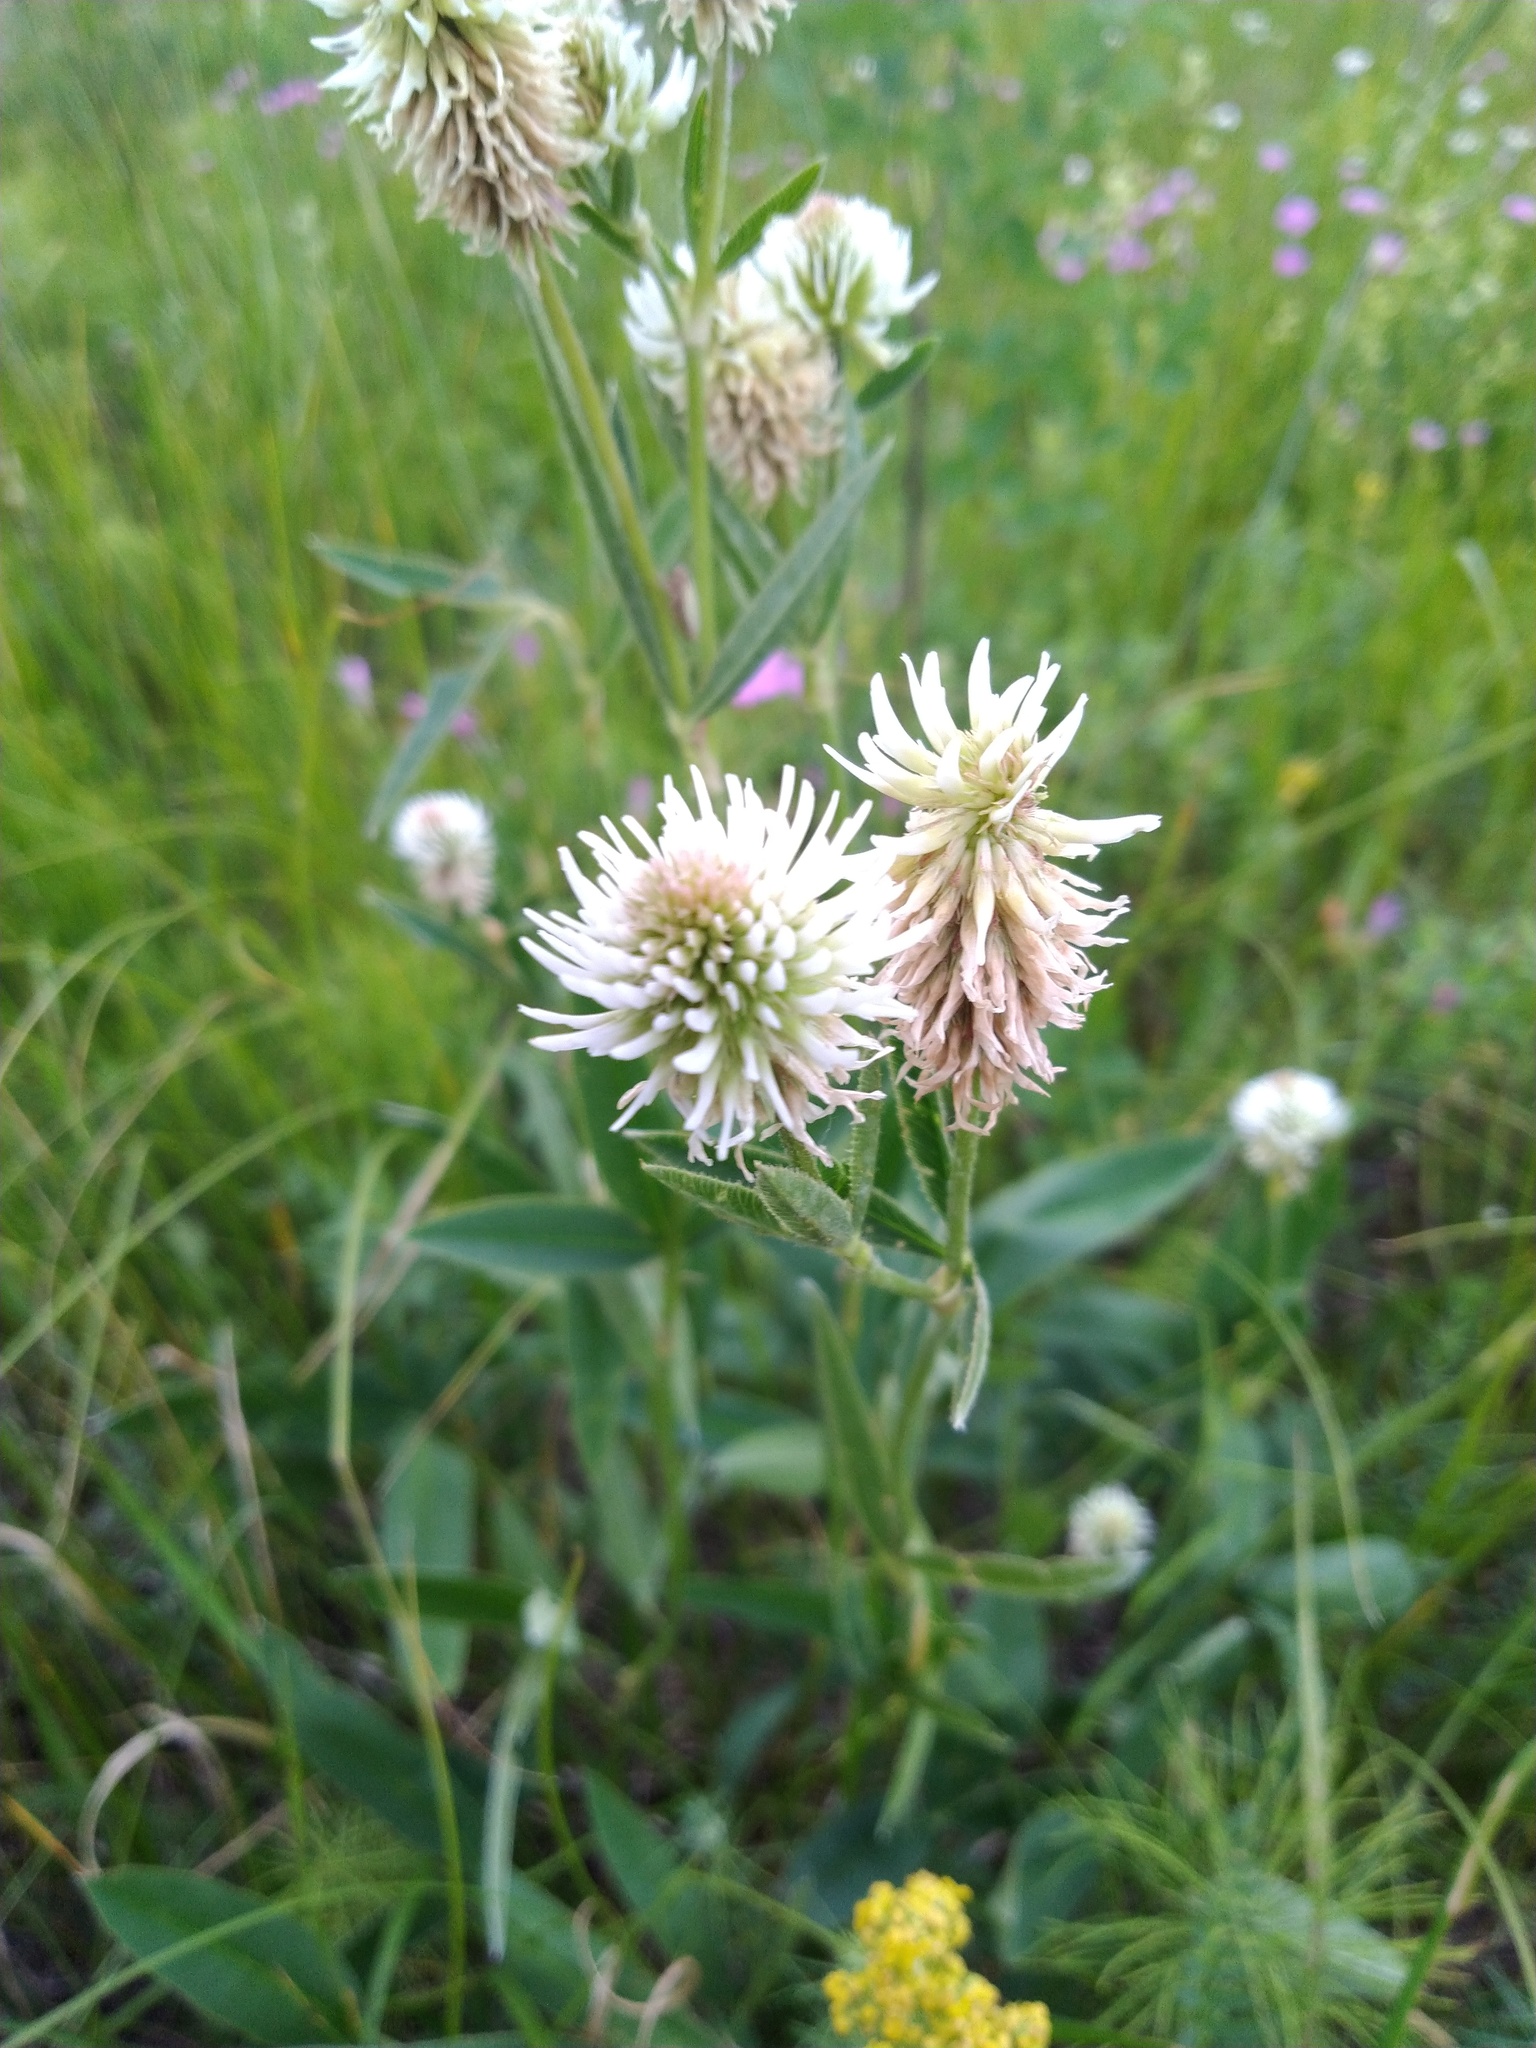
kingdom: Plantae
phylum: Tracheophyta
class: Magnoliopsida
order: Fabales
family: Fabaceae
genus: Trifolium
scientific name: Trifolium montanum
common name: Mountain clover
